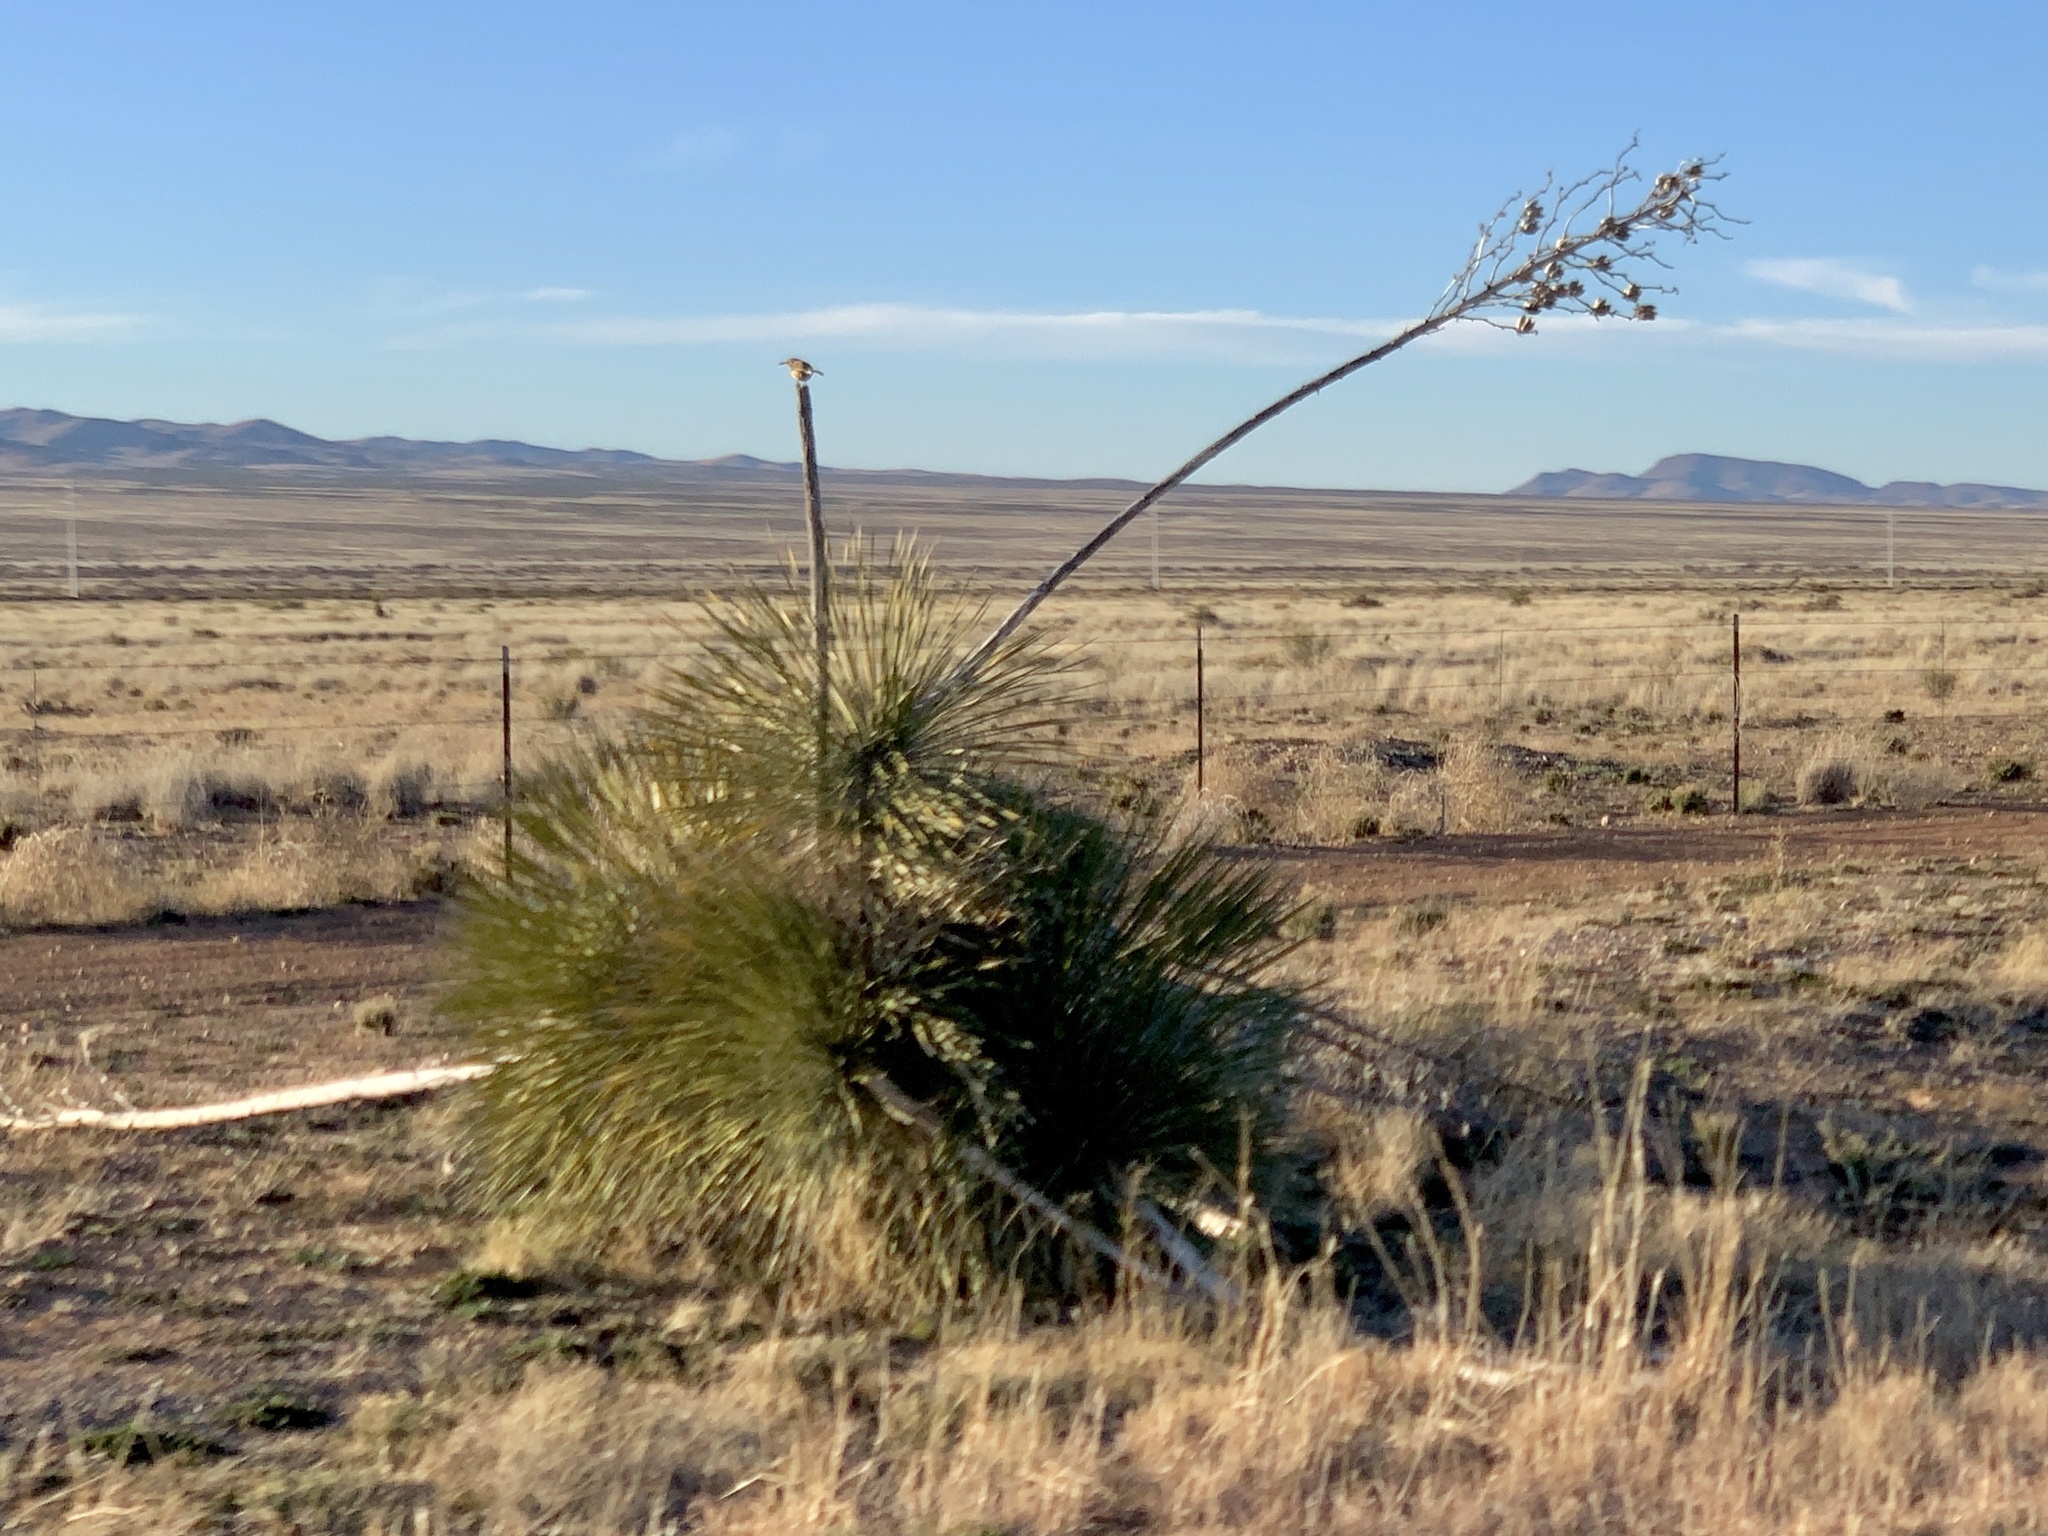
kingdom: Plantae
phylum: Tracheophyta
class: Liliopsida
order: Asparagales
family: Asparagaceae
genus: Yucca
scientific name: Yucca elata
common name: Palmella
